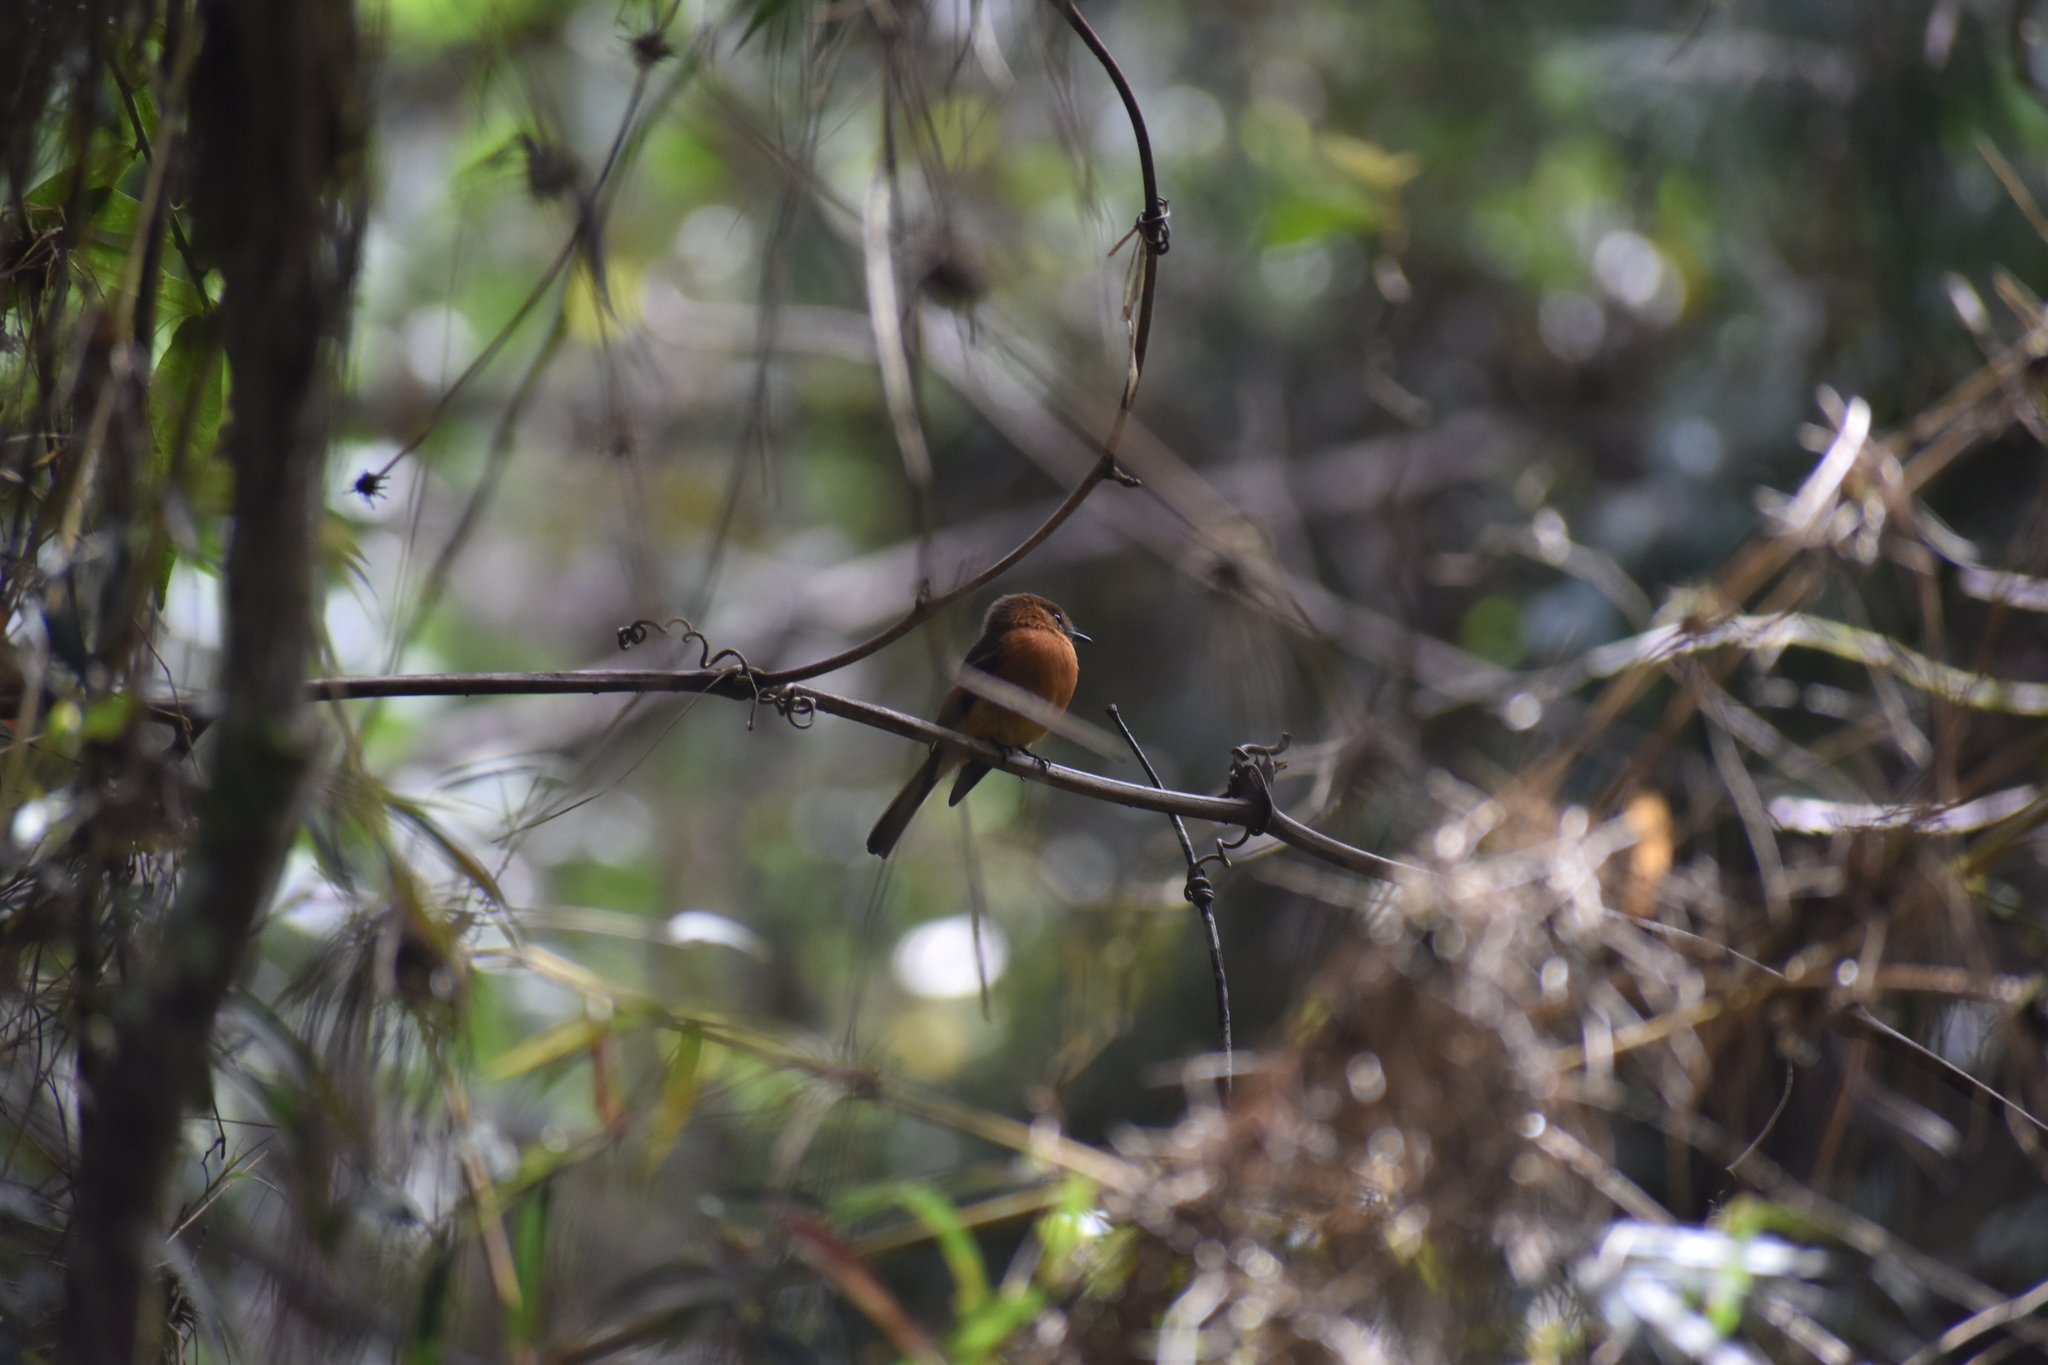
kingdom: Animalia
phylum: Chordata
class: Aves
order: Passeriformes
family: Tyrannidae
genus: Pyrrhomyias
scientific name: Pyrrhomyias cinnamomeus
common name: Cinnamon flycatcher
